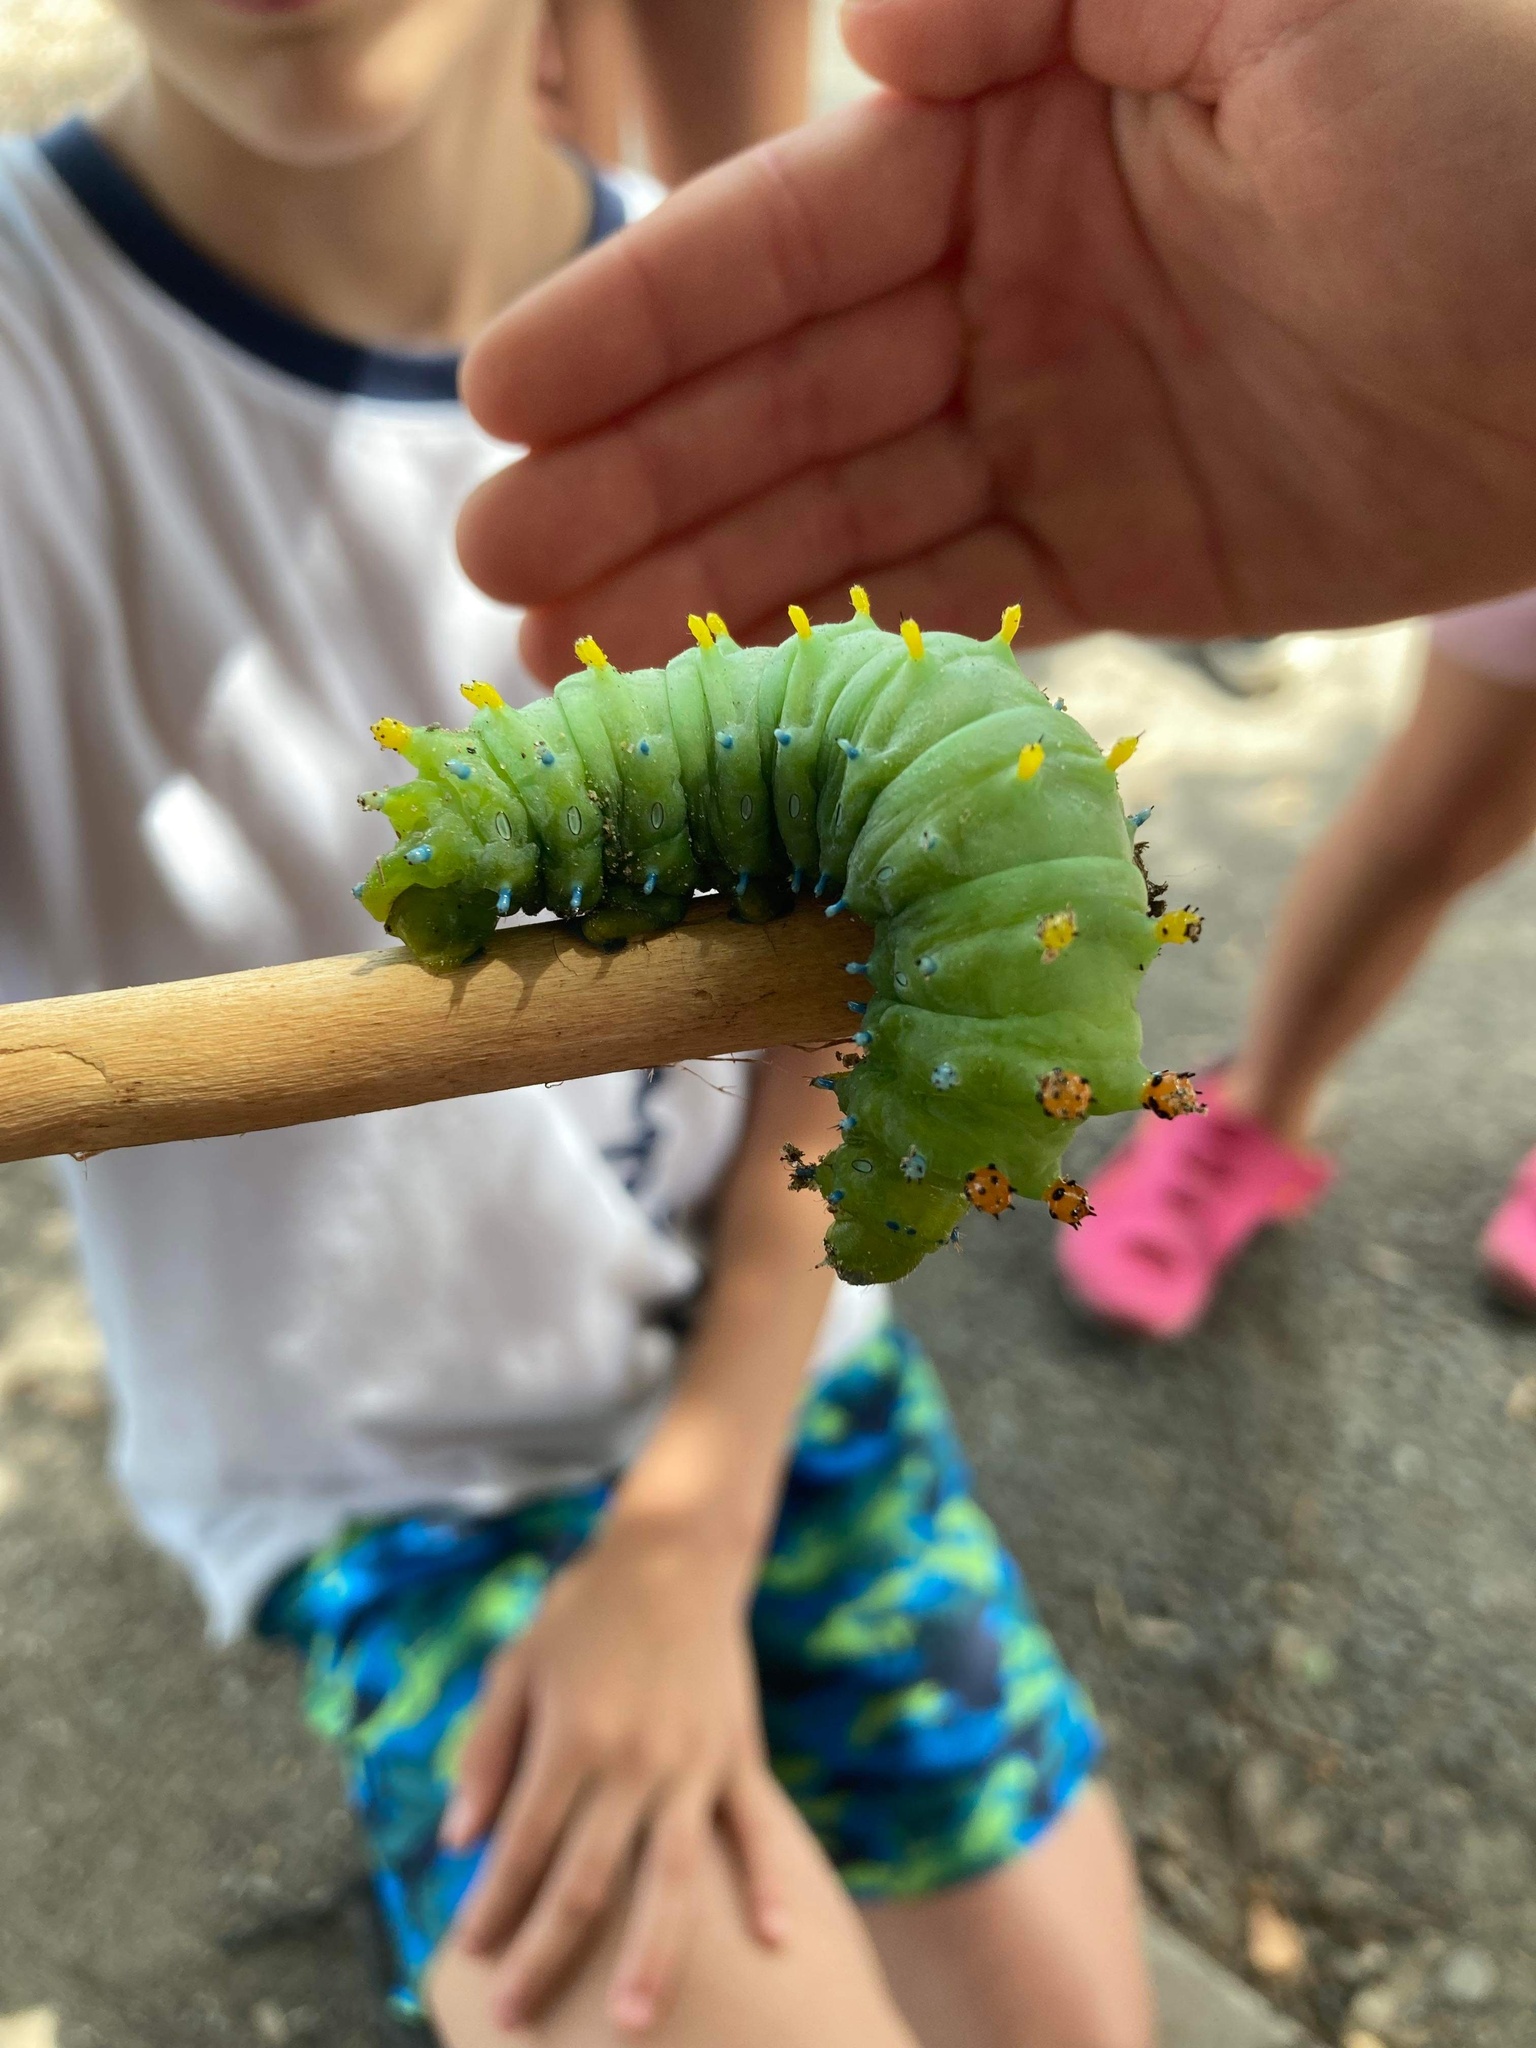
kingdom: Animalia
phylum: Arthropoda
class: Insecta
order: Lepidoptera
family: Saturniidae
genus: Hyalophora
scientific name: Hyalophora cecropia
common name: Cecropia silkmoth
